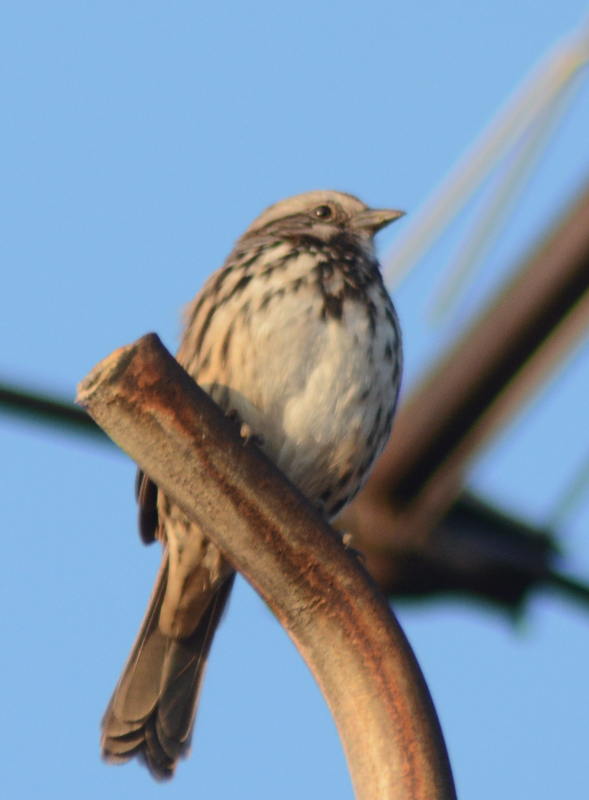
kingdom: Animalia
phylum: Chordata
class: Aves
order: Passeriformes
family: Passerellidae
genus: Melospiza
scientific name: Melospiza melodia
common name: Song sparrow
